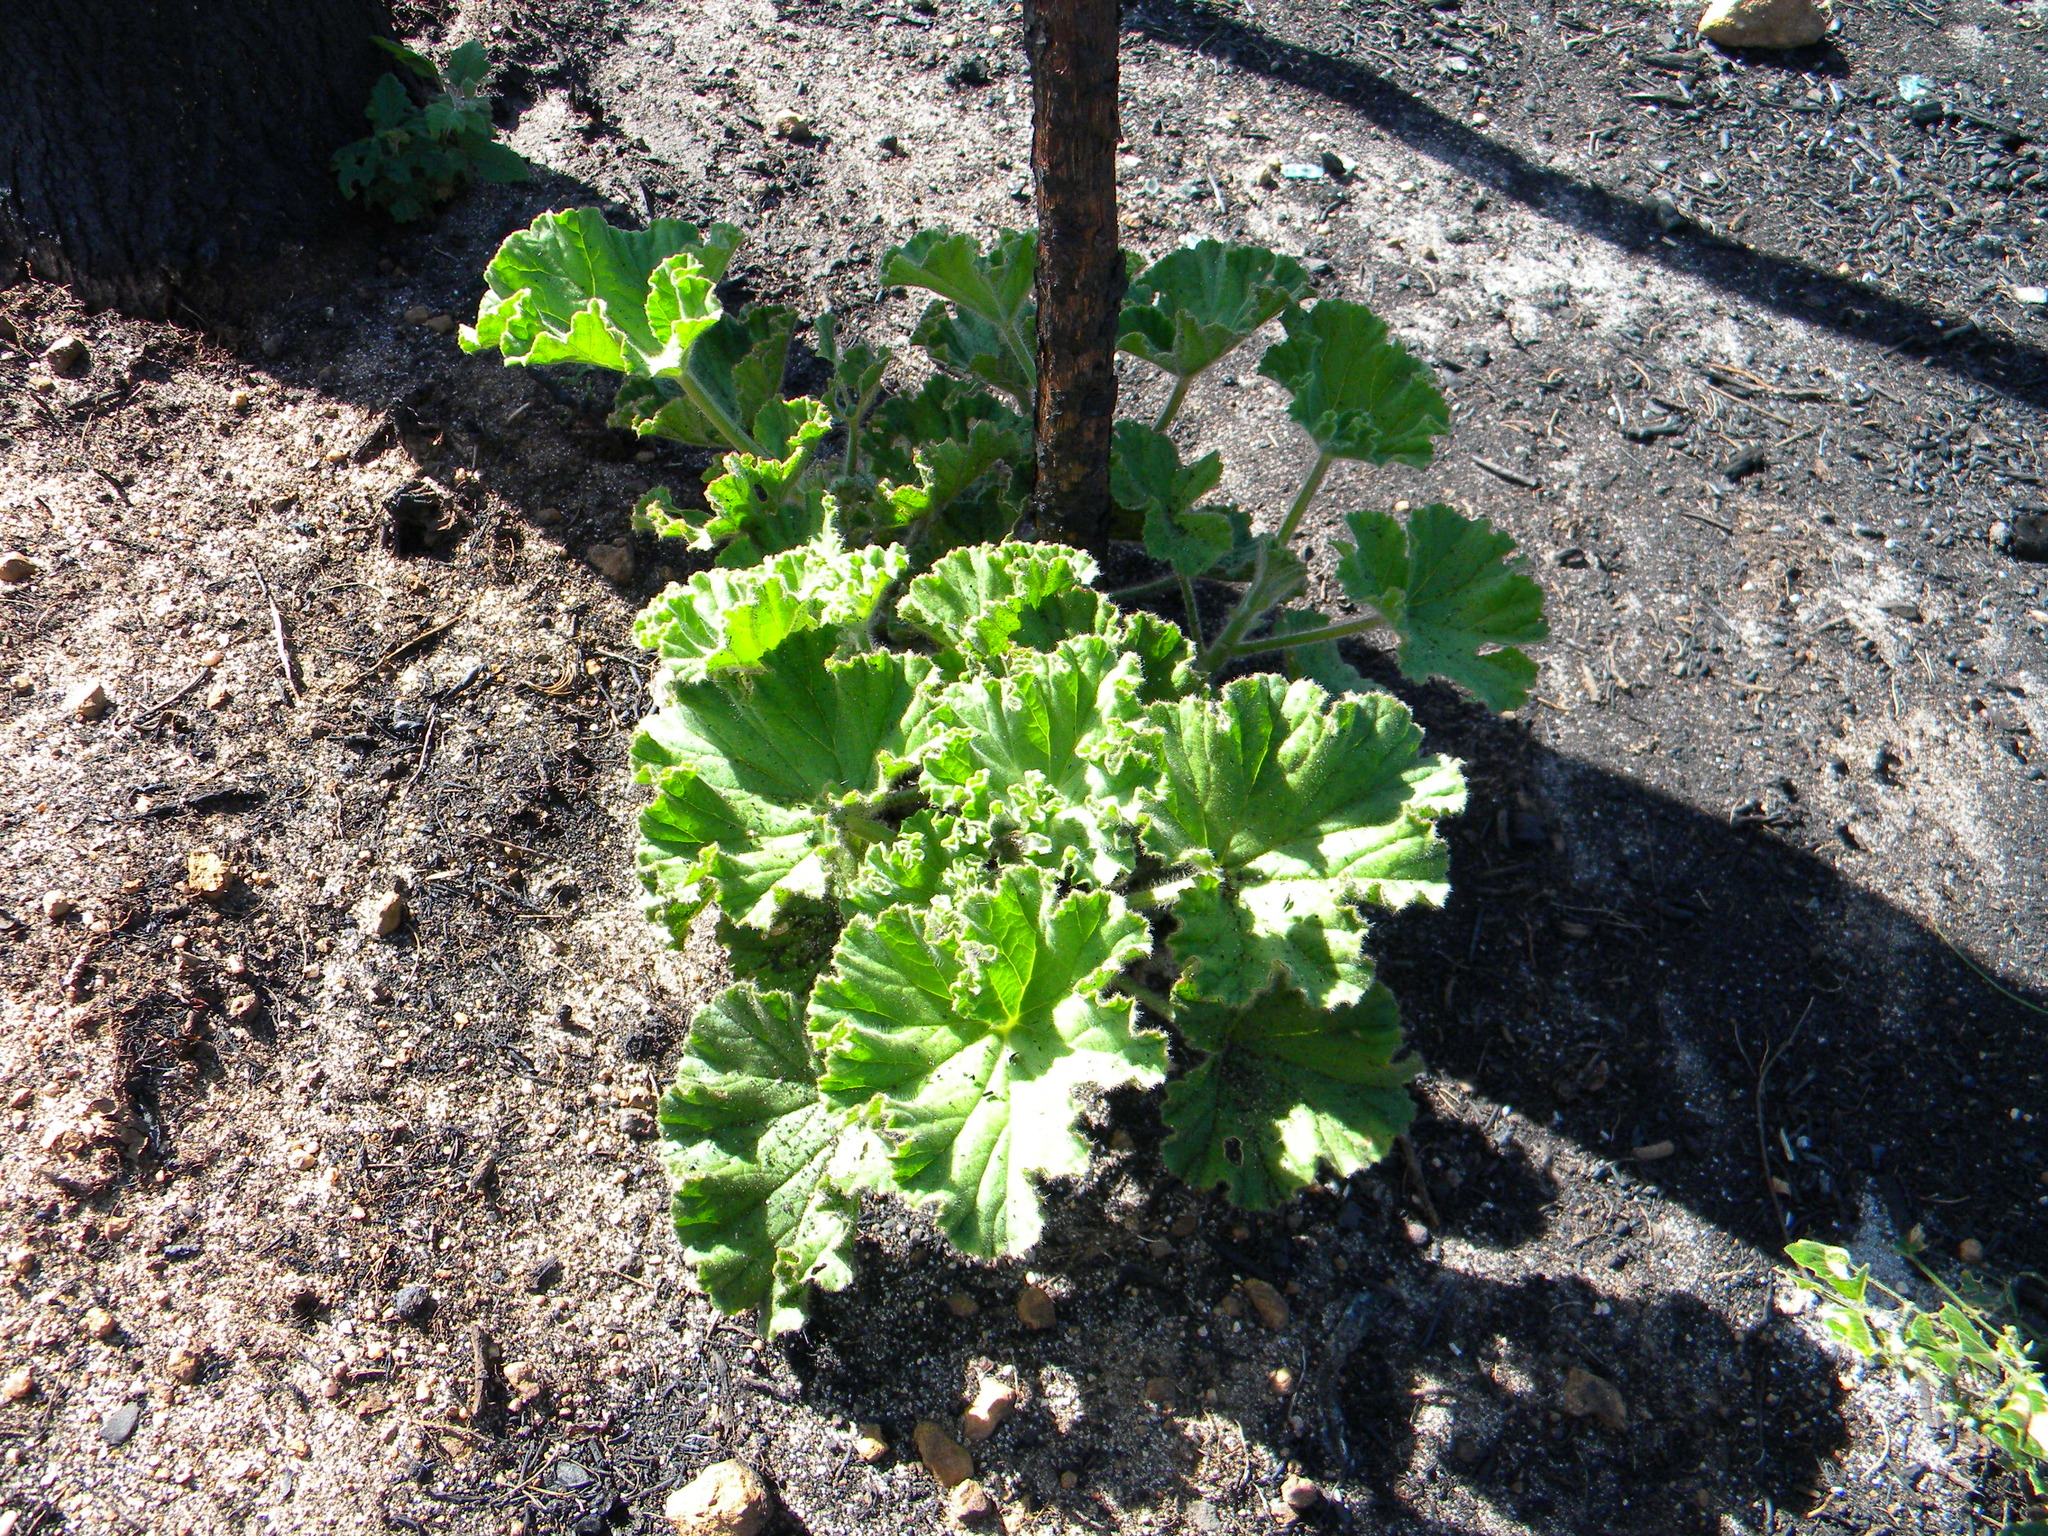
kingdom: Plantae
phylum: Tracheophyta
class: Magnoliopsida
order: Geraniales
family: Geraniaceae
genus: Pelargonium
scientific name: Pelargonium cucullatum
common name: Tree pelargonium
